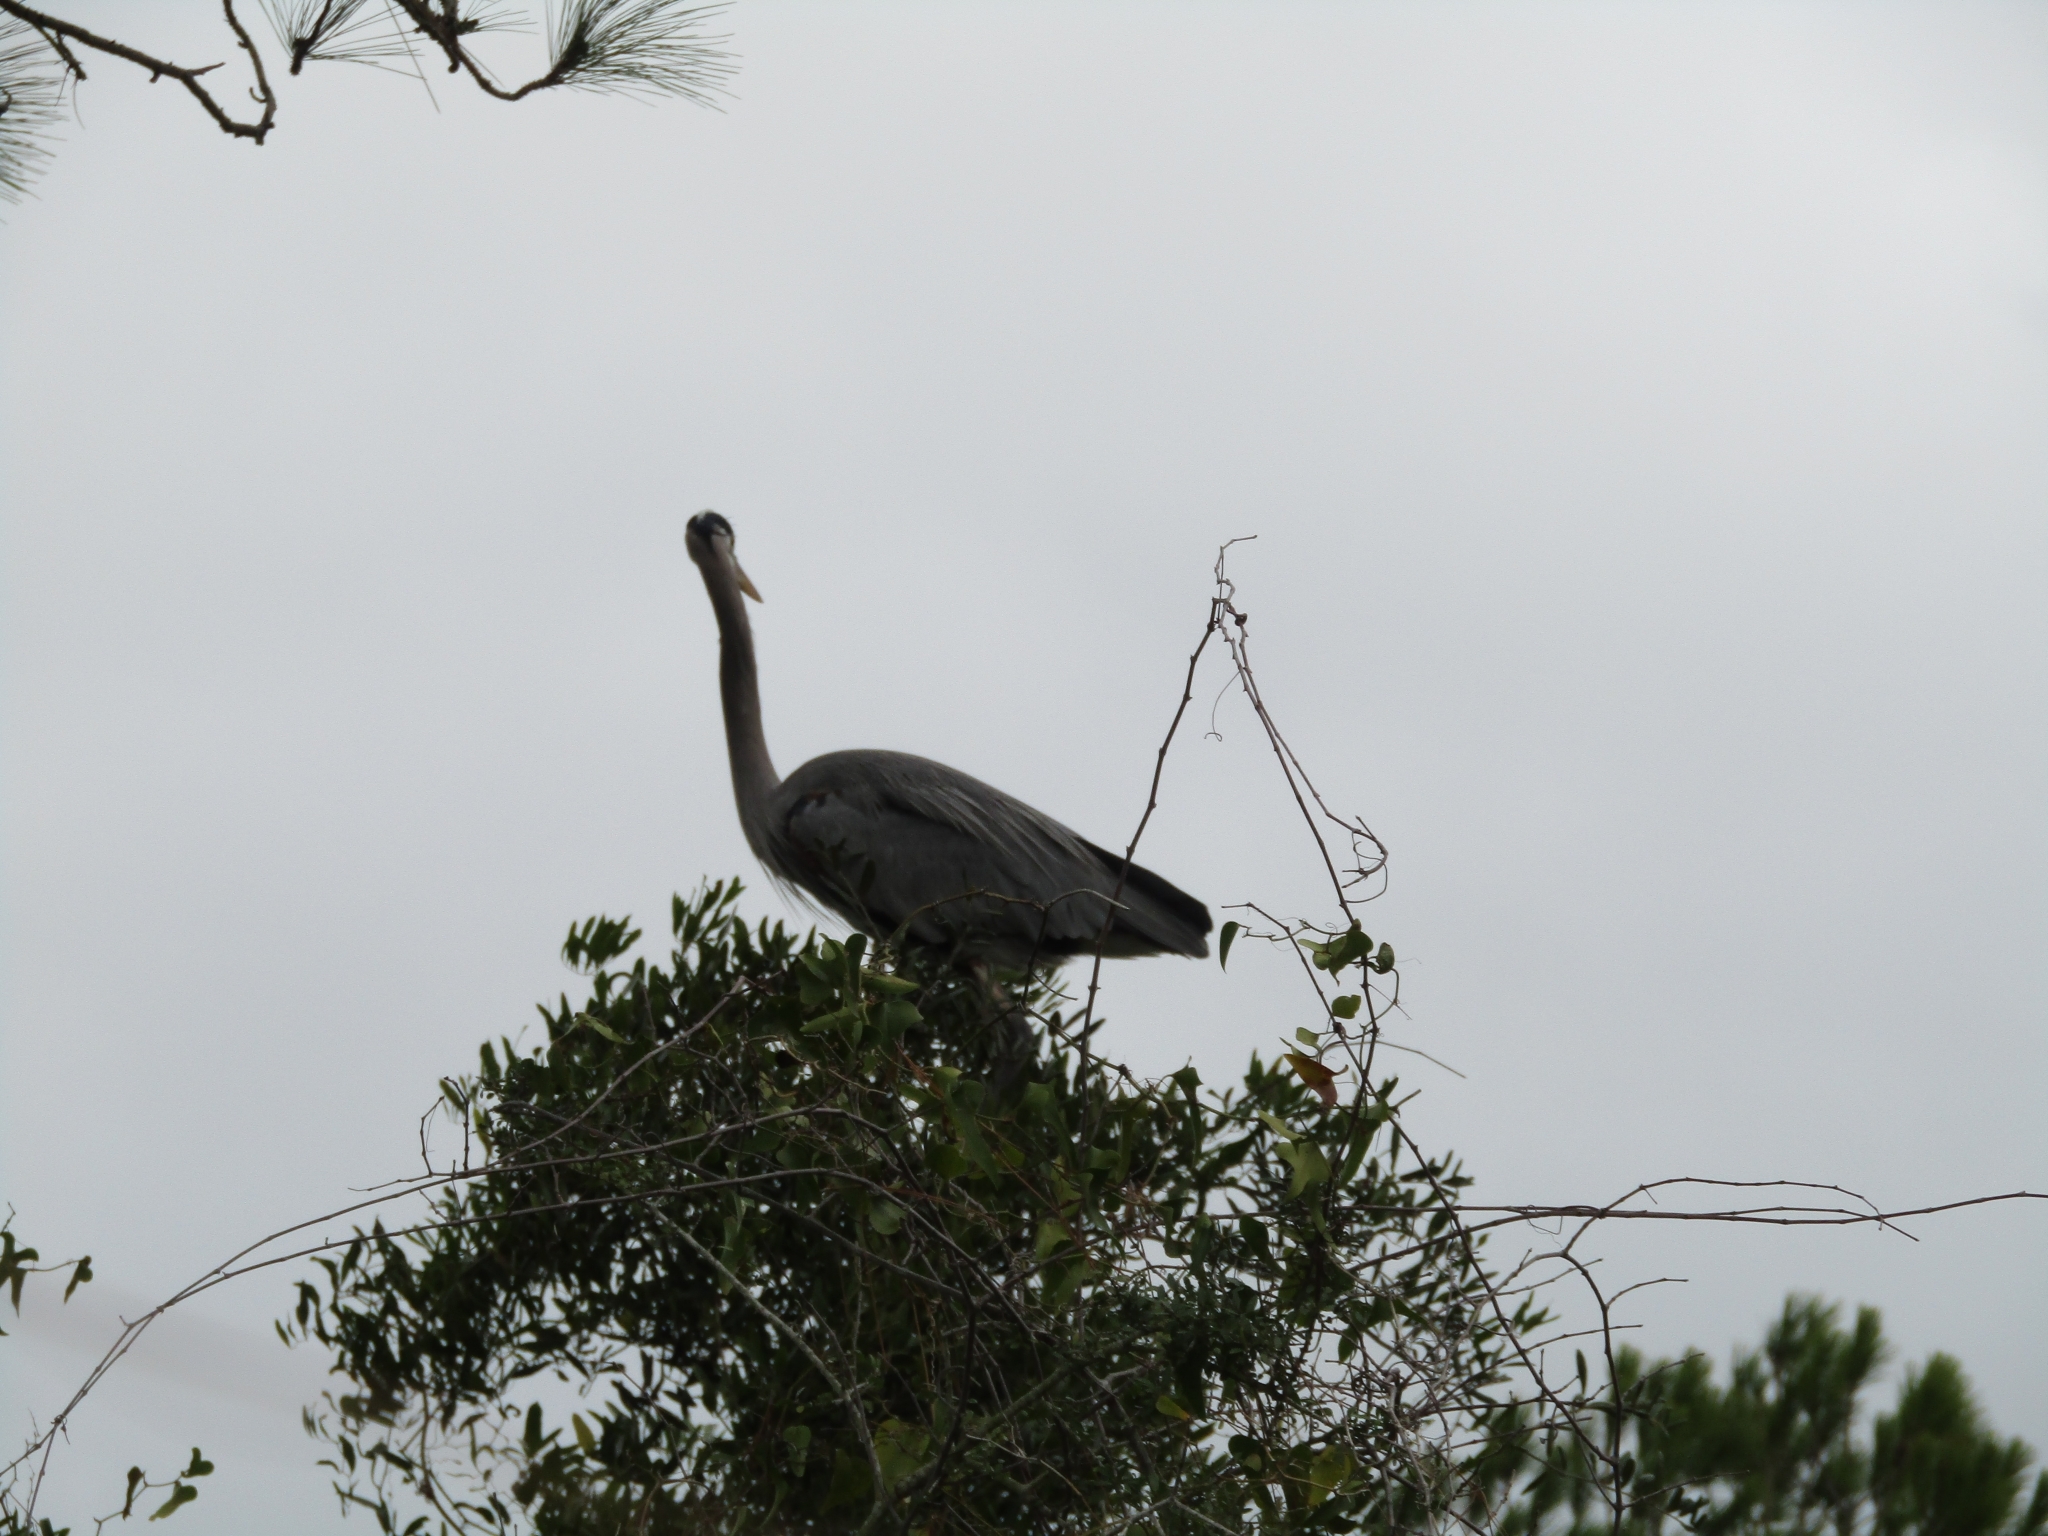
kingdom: Animalia
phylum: Chordata
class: Aves
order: Pelecaniformes
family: Ardeidae
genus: Ardea
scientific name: Ardea herodias
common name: Great blue heron
